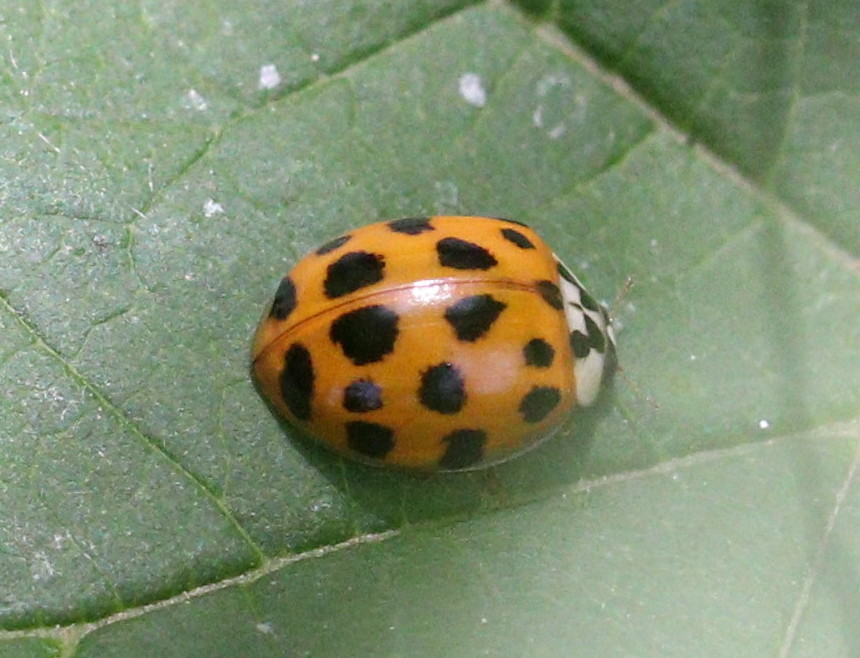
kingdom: Animalia
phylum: Arthropoda
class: Insecta
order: Coleoptera
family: Coccinellidae
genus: Harmonia
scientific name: Harmonia axyridis
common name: Harlequin ladybird
